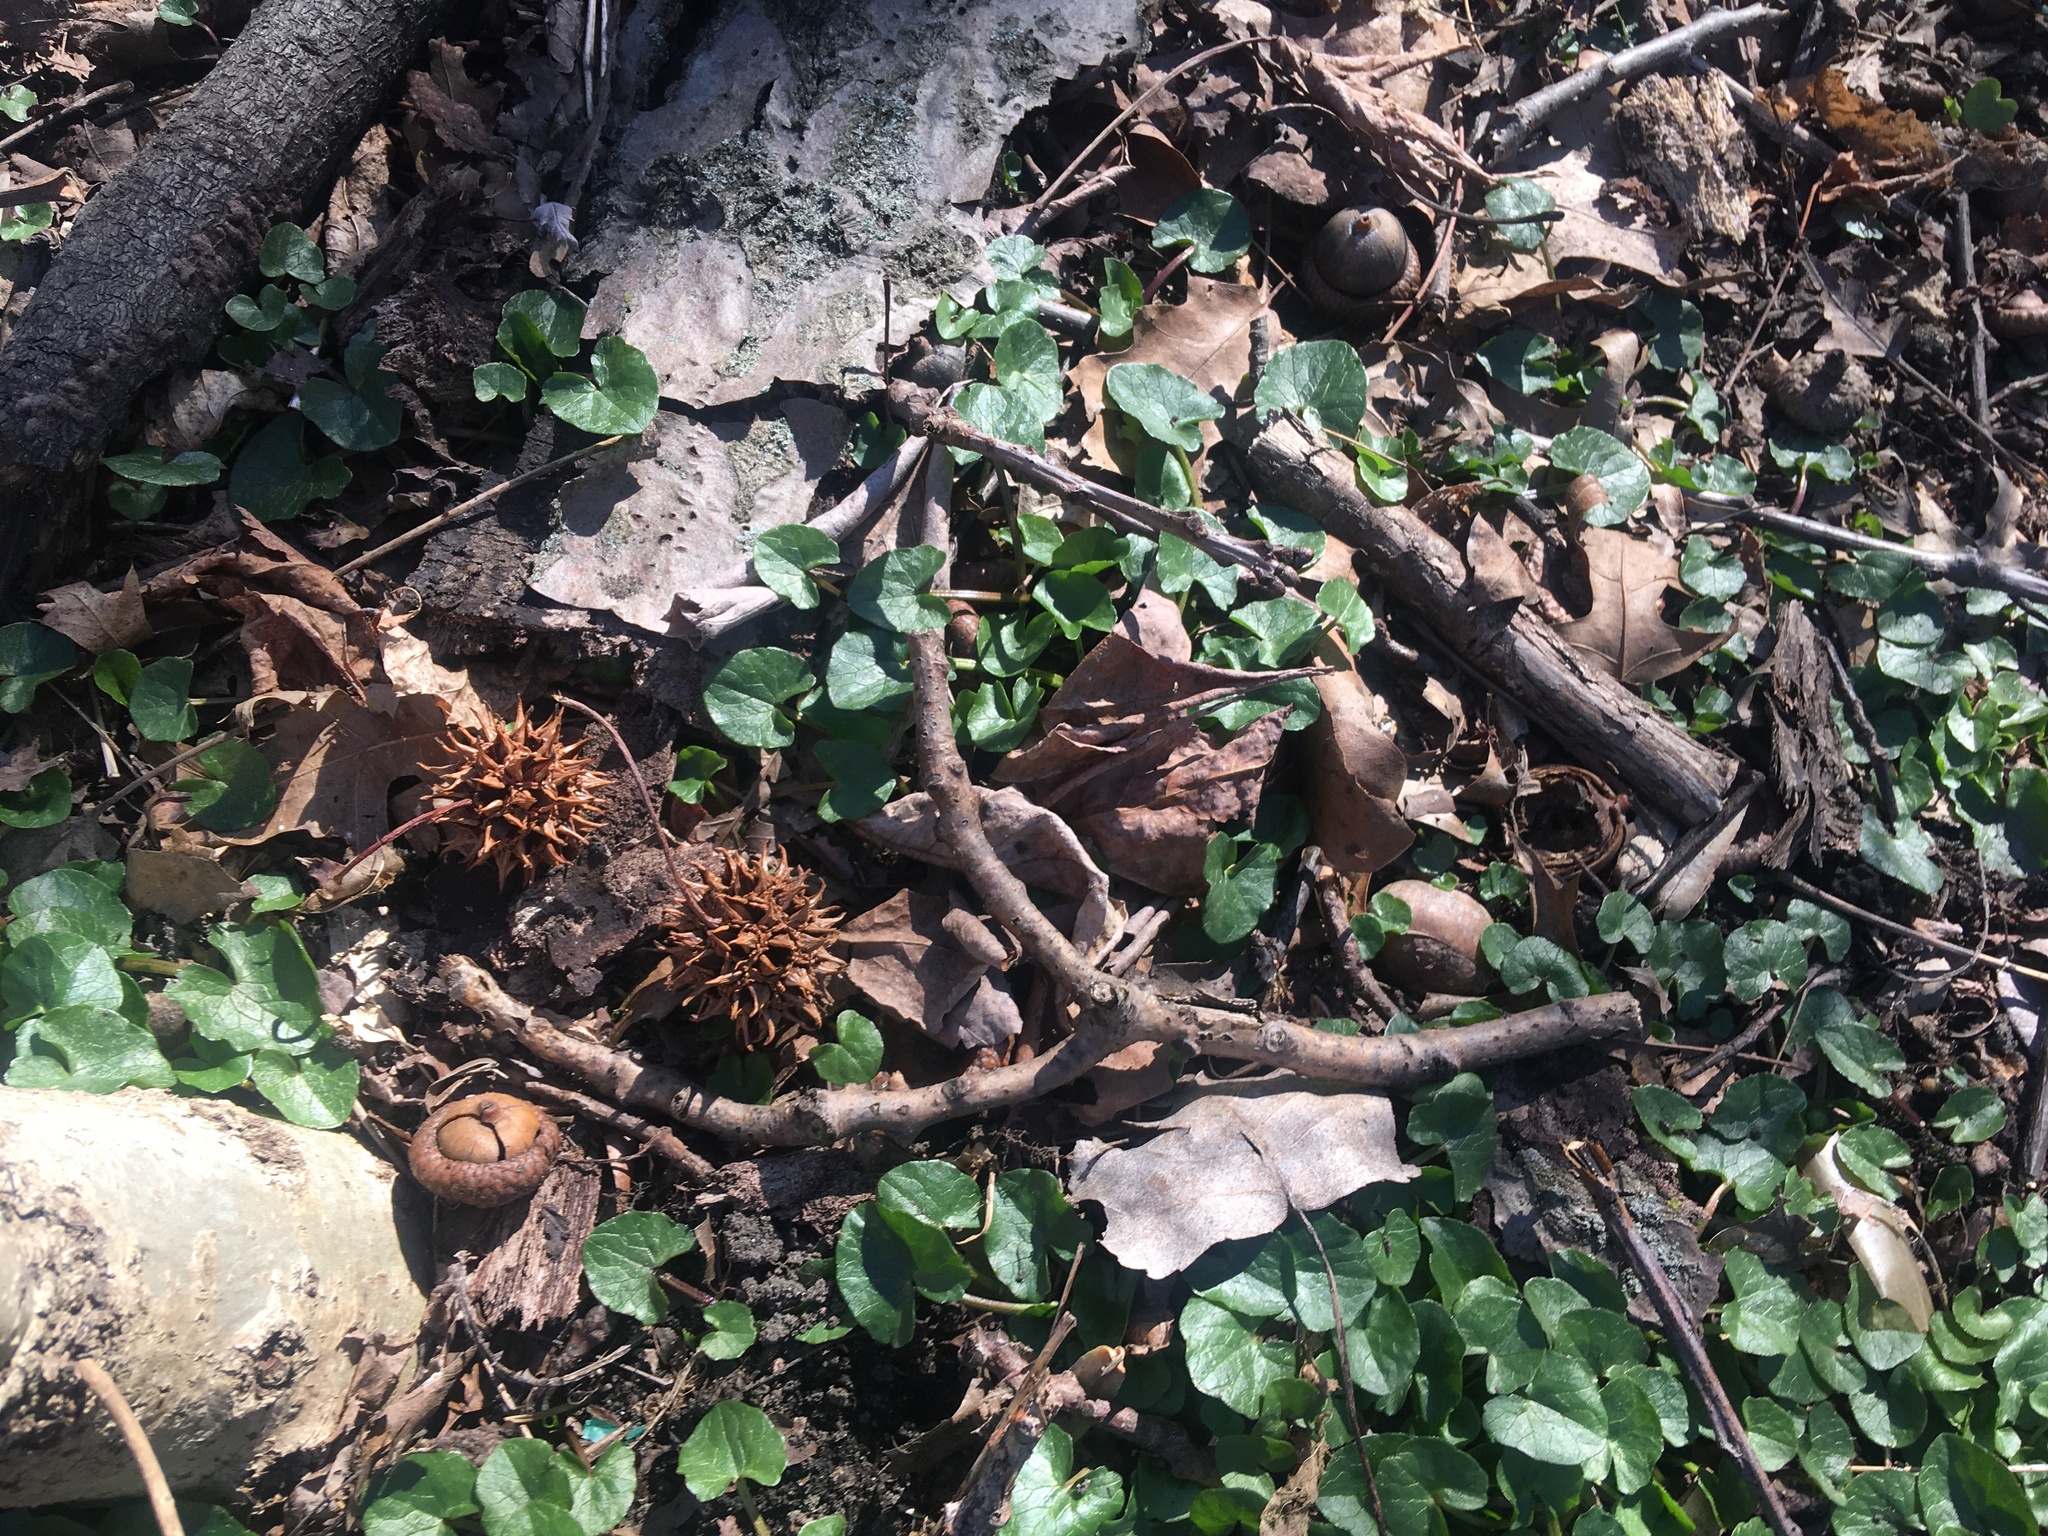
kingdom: Plantae
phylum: Tracheophyta
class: Magnoliopsida
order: Ranunculales
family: Ranunculaceae
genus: Ficaria
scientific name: Ficaria verna
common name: Lesser celandine
